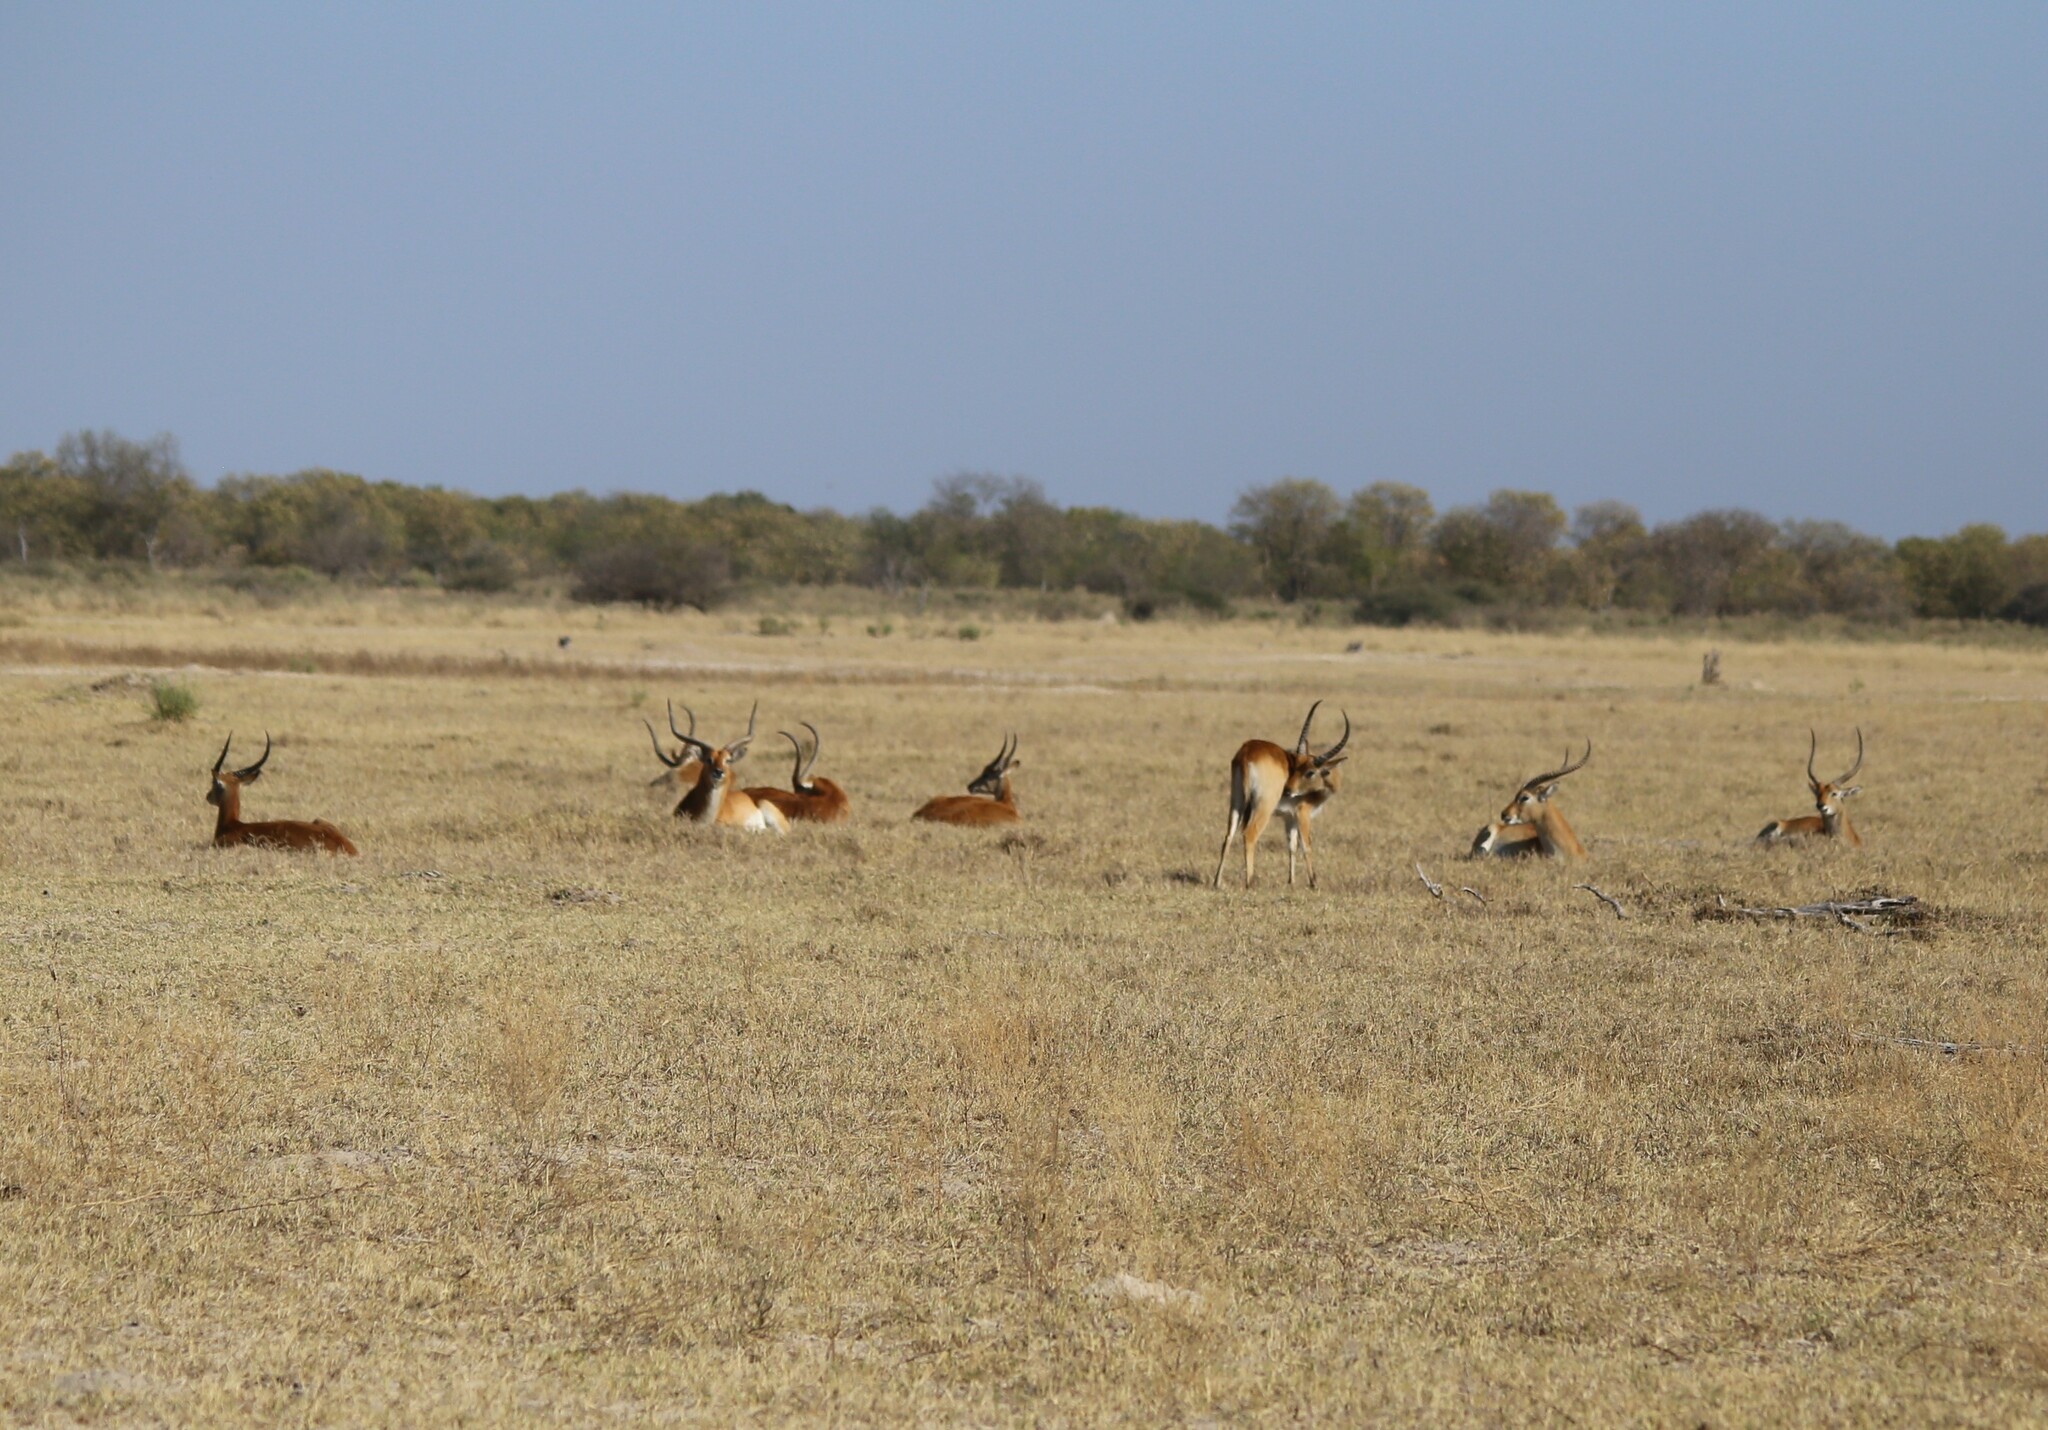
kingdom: Animalia
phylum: Chordata
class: Mammalia
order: Artiodactyla
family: Bovidae
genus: Kobus
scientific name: Kobus leche
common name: Lechwe
